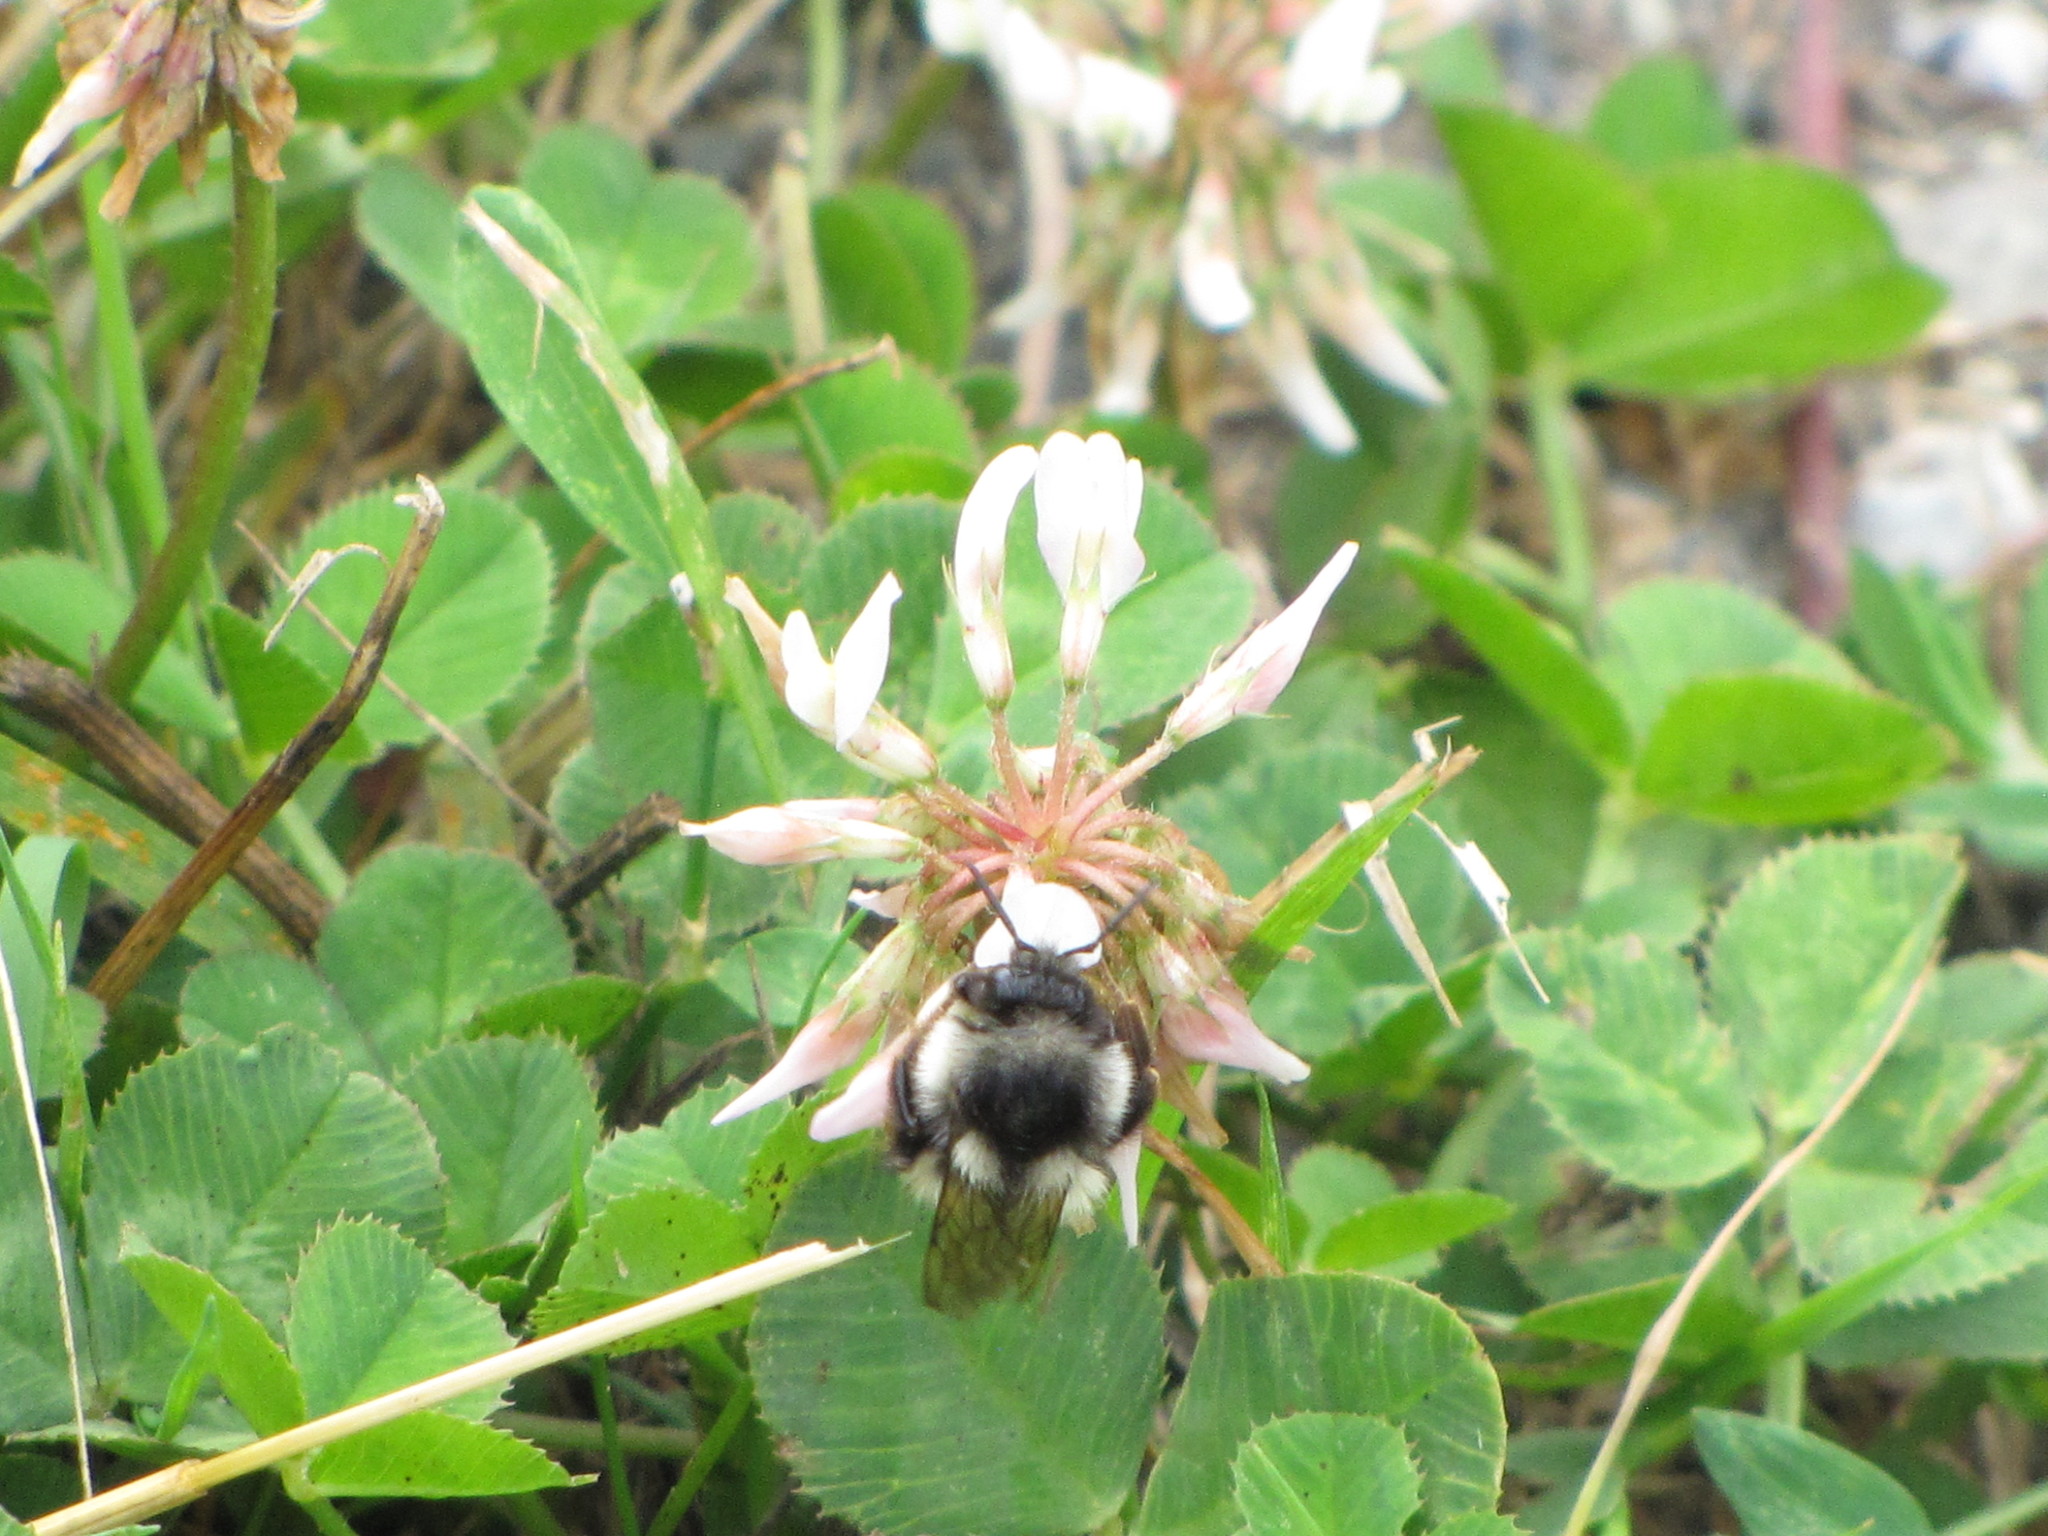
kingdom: Animalia
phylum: Arthropoda
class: Insecta
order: Hymenoptera
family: Apidae
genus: Bombus
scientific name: Bombus vancouverensis
